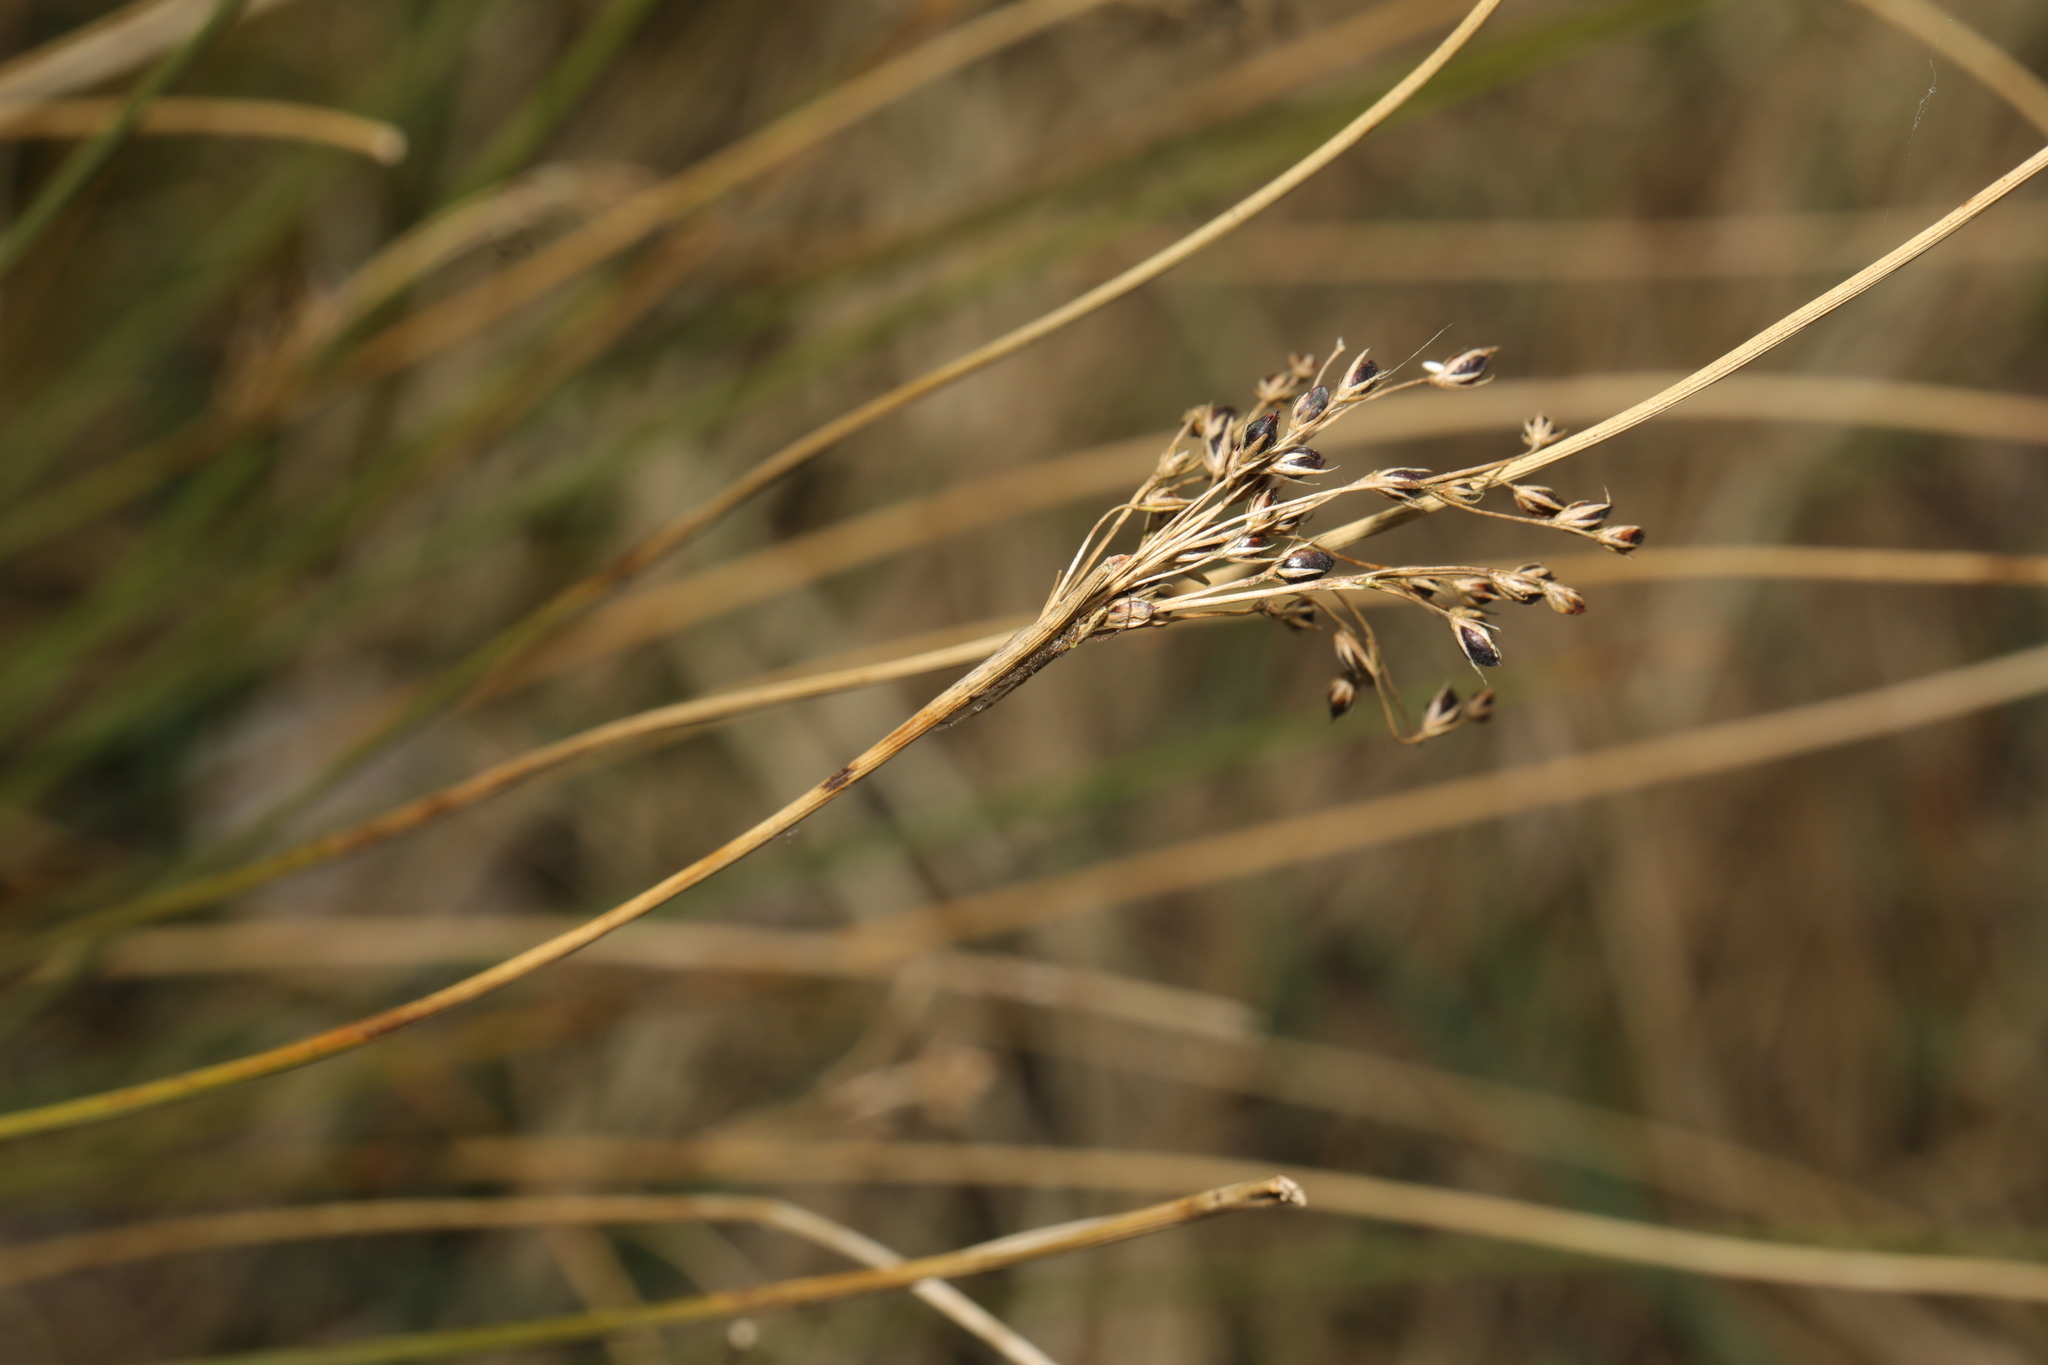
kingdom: Plantae
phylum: Tracheophyta
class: Liliopsida
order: Poales
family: Juncaceae
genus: Juncus
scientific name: Juncus inflexus
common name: Hard rush
